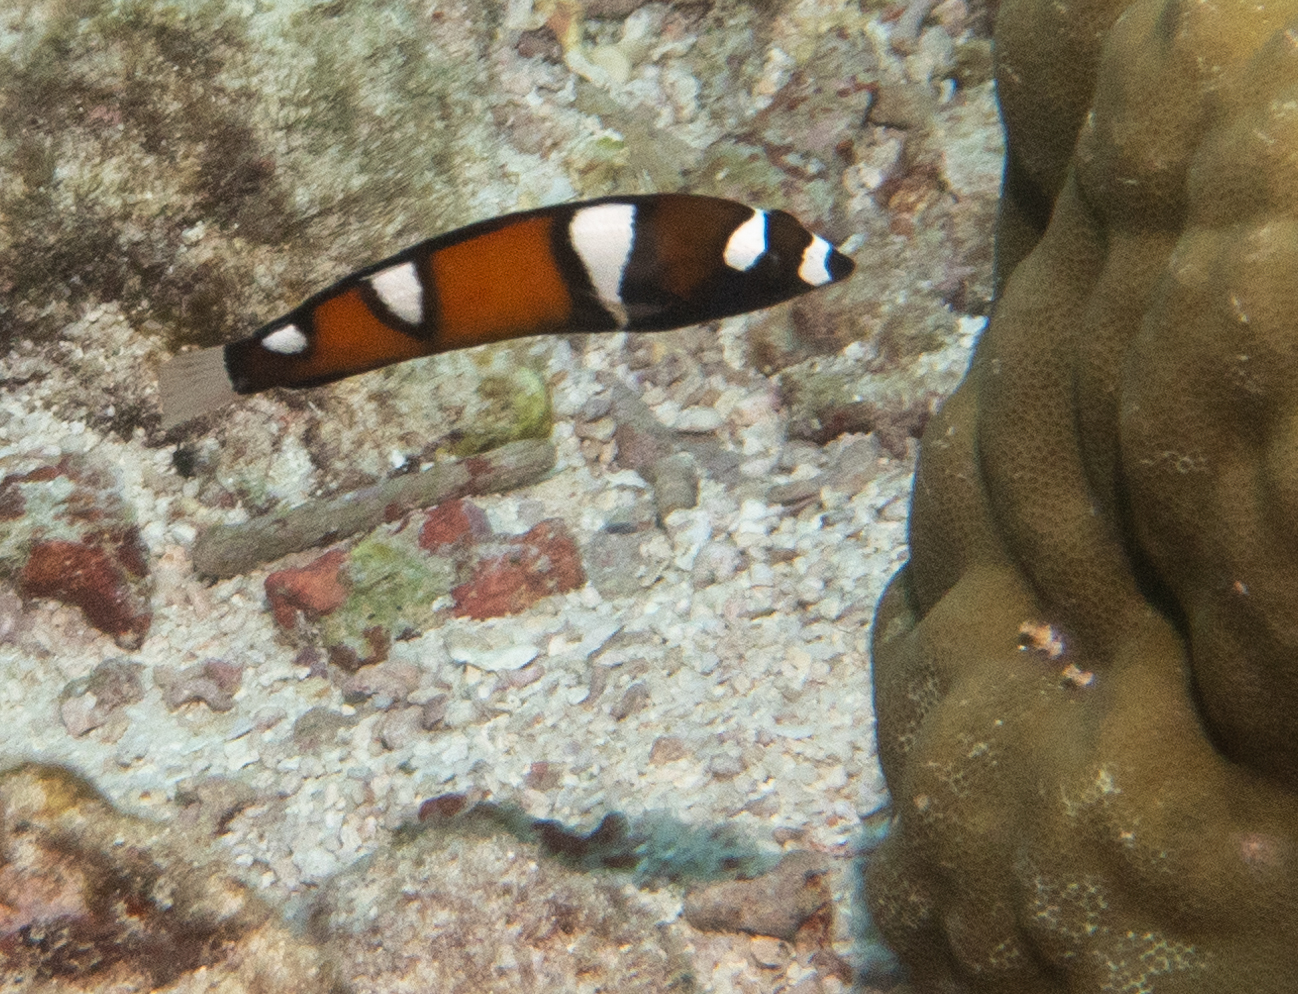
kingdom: Animalia
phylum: Chordata
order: Perciformes
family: Labridae
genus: Coris
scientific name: Coris formosa
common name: Queen coris
